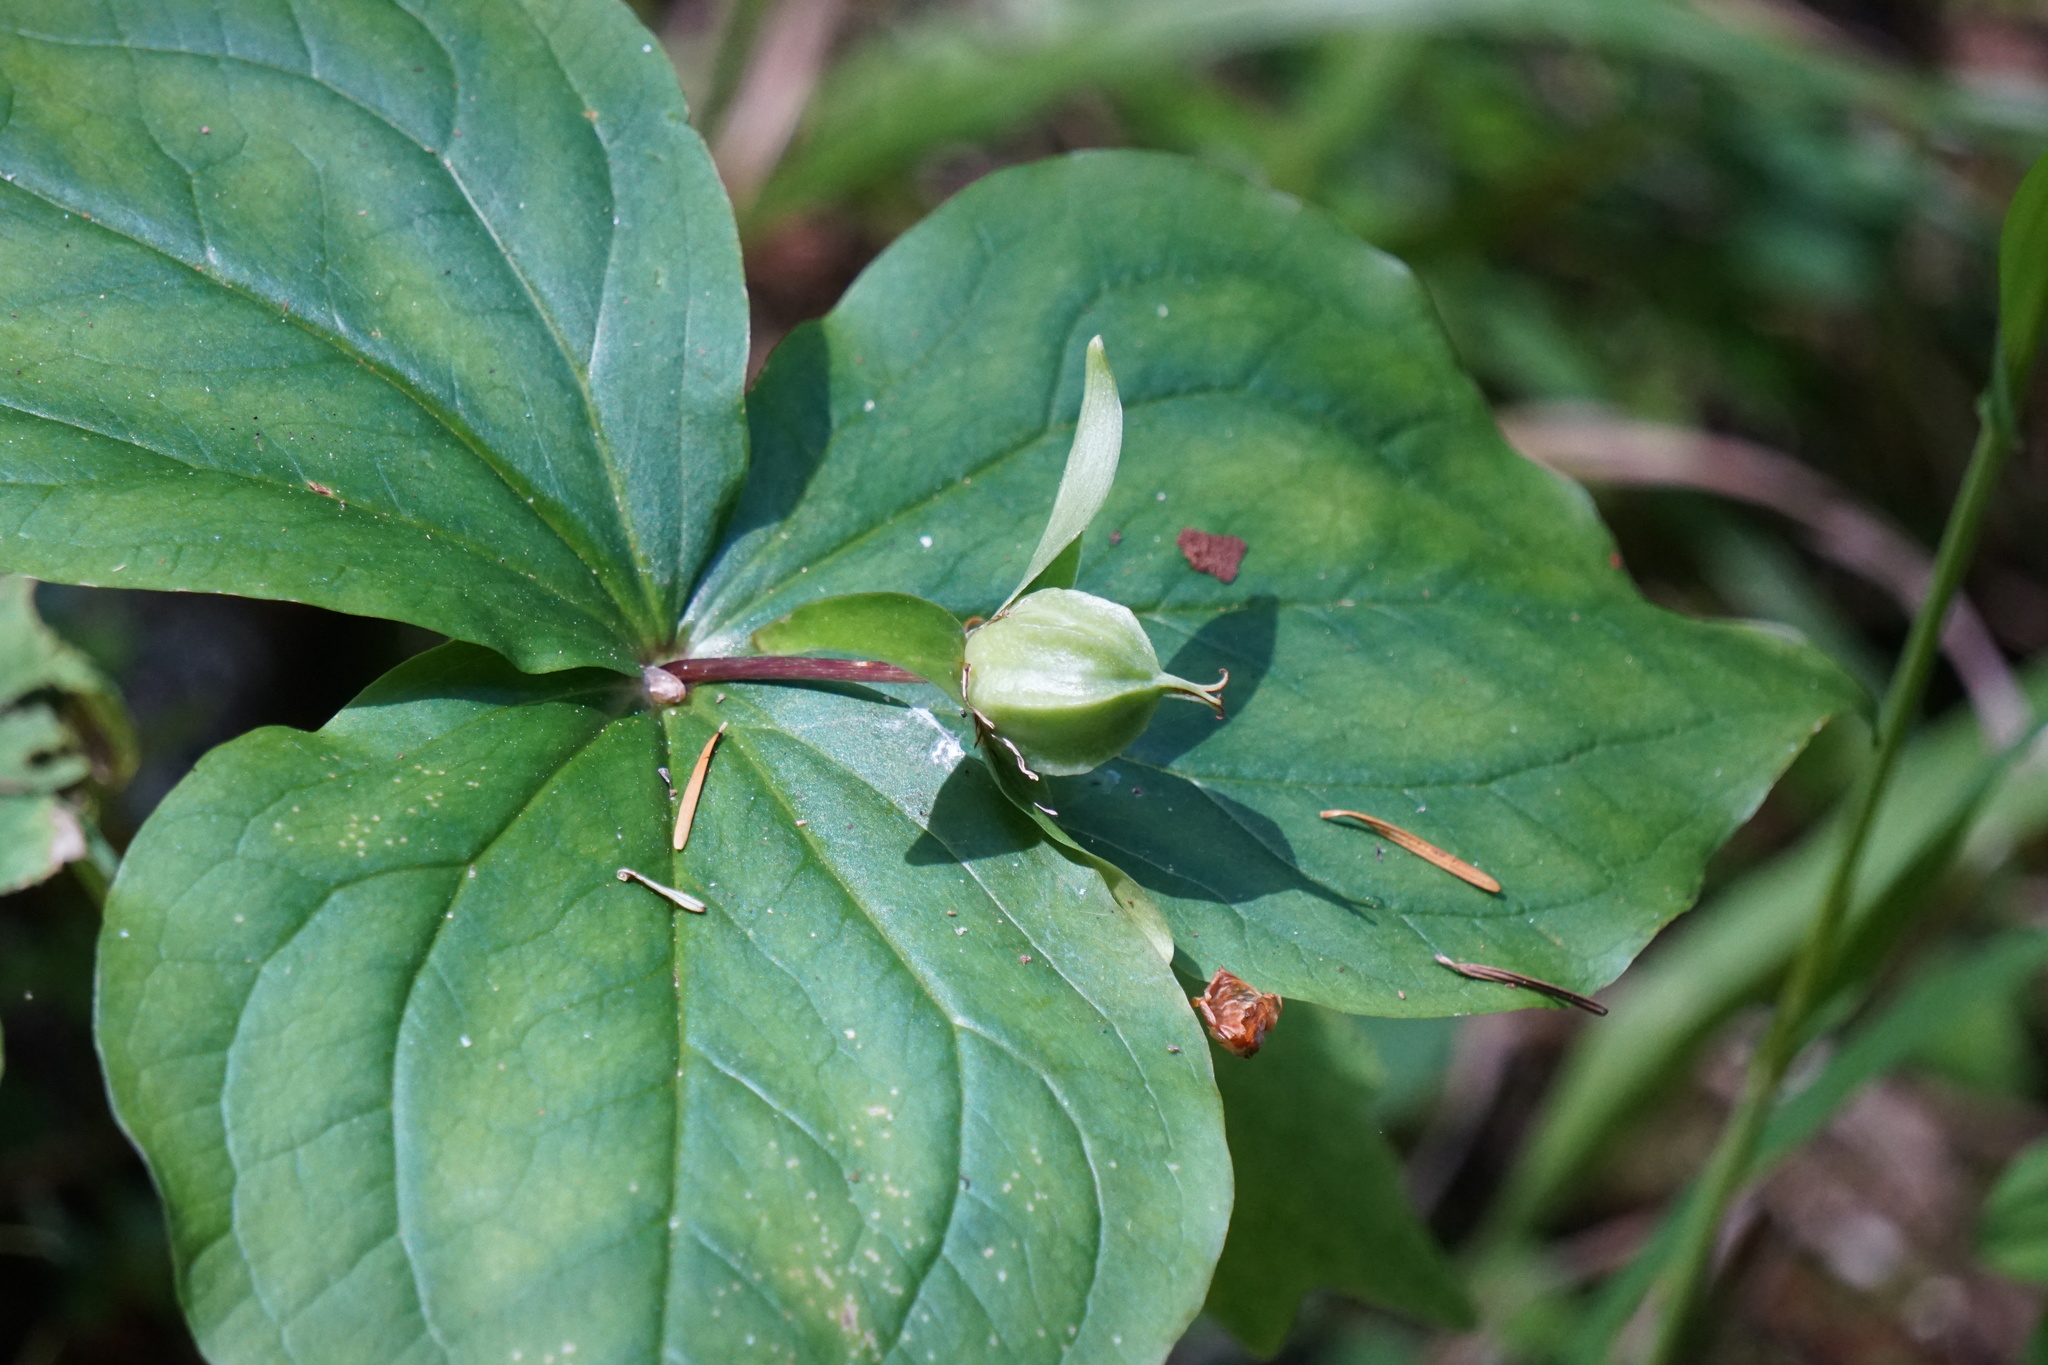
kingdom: Plantae
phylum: Tracheophyta
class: Liliopsida
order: Liliales
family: Melanthiaceae
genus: Trillium
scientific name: Trillium ovatum
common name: Pacific trillium
